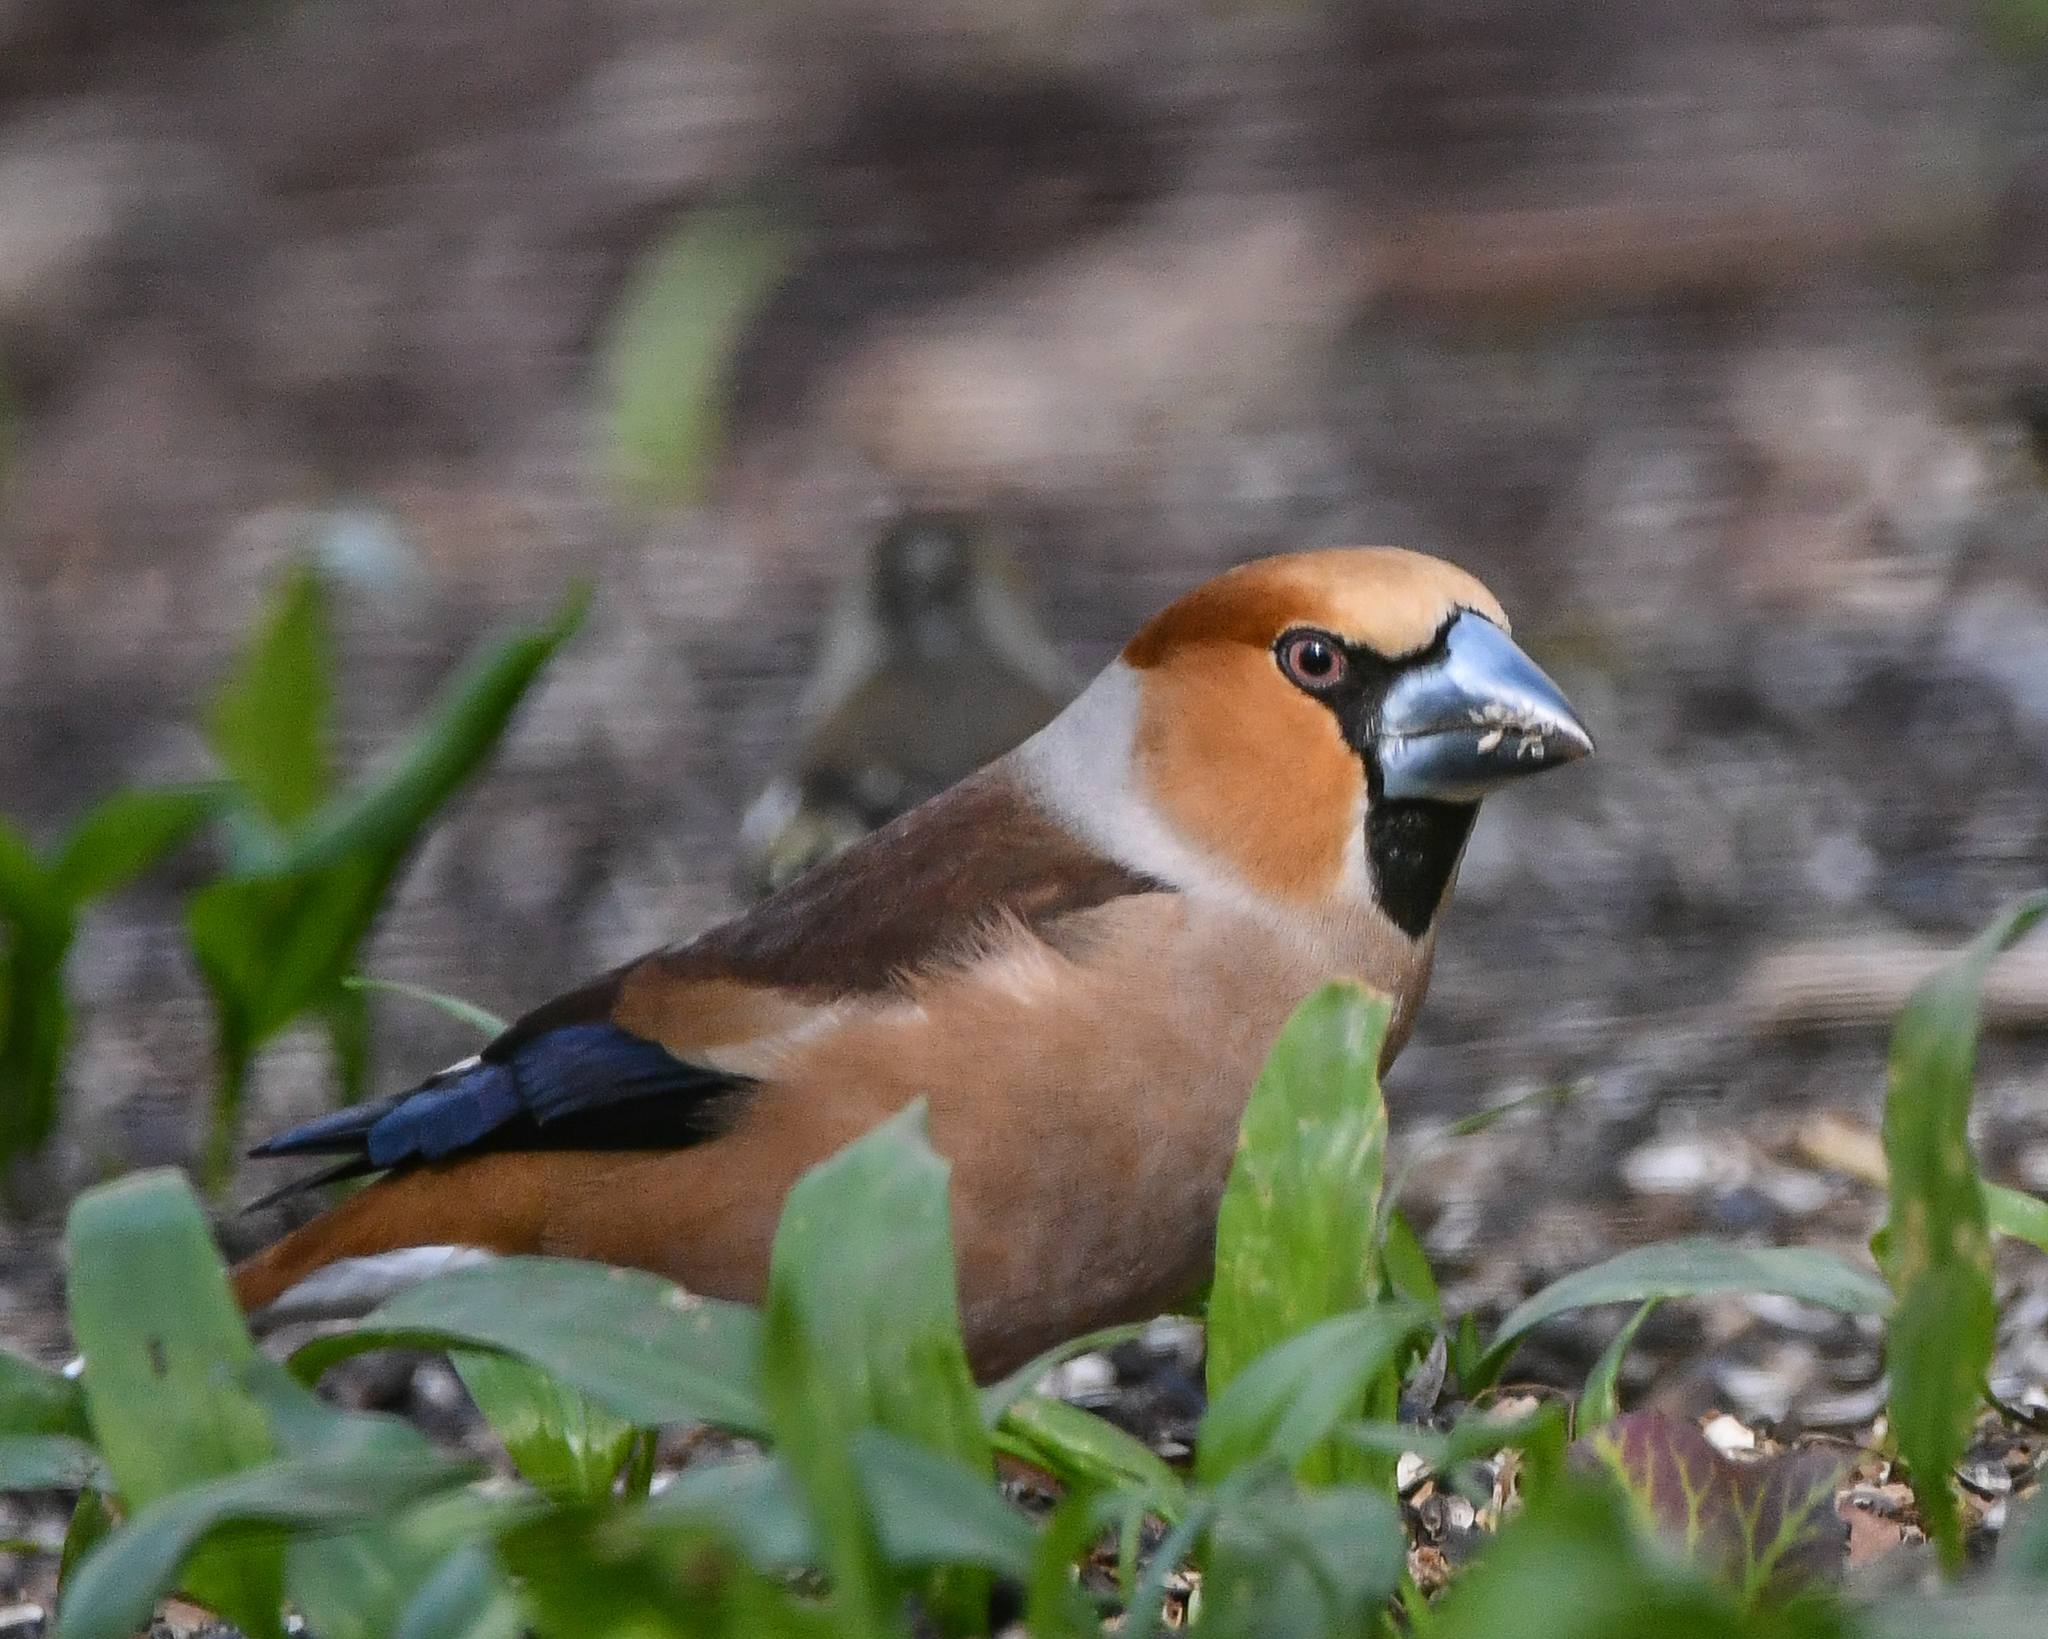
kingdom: Animalia
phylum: Chordata
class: Aves
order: Passeriformes
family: Fringillidae
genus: Coccothraustes
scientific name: Coccothraustes coccothraustes
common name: Hawfinch
